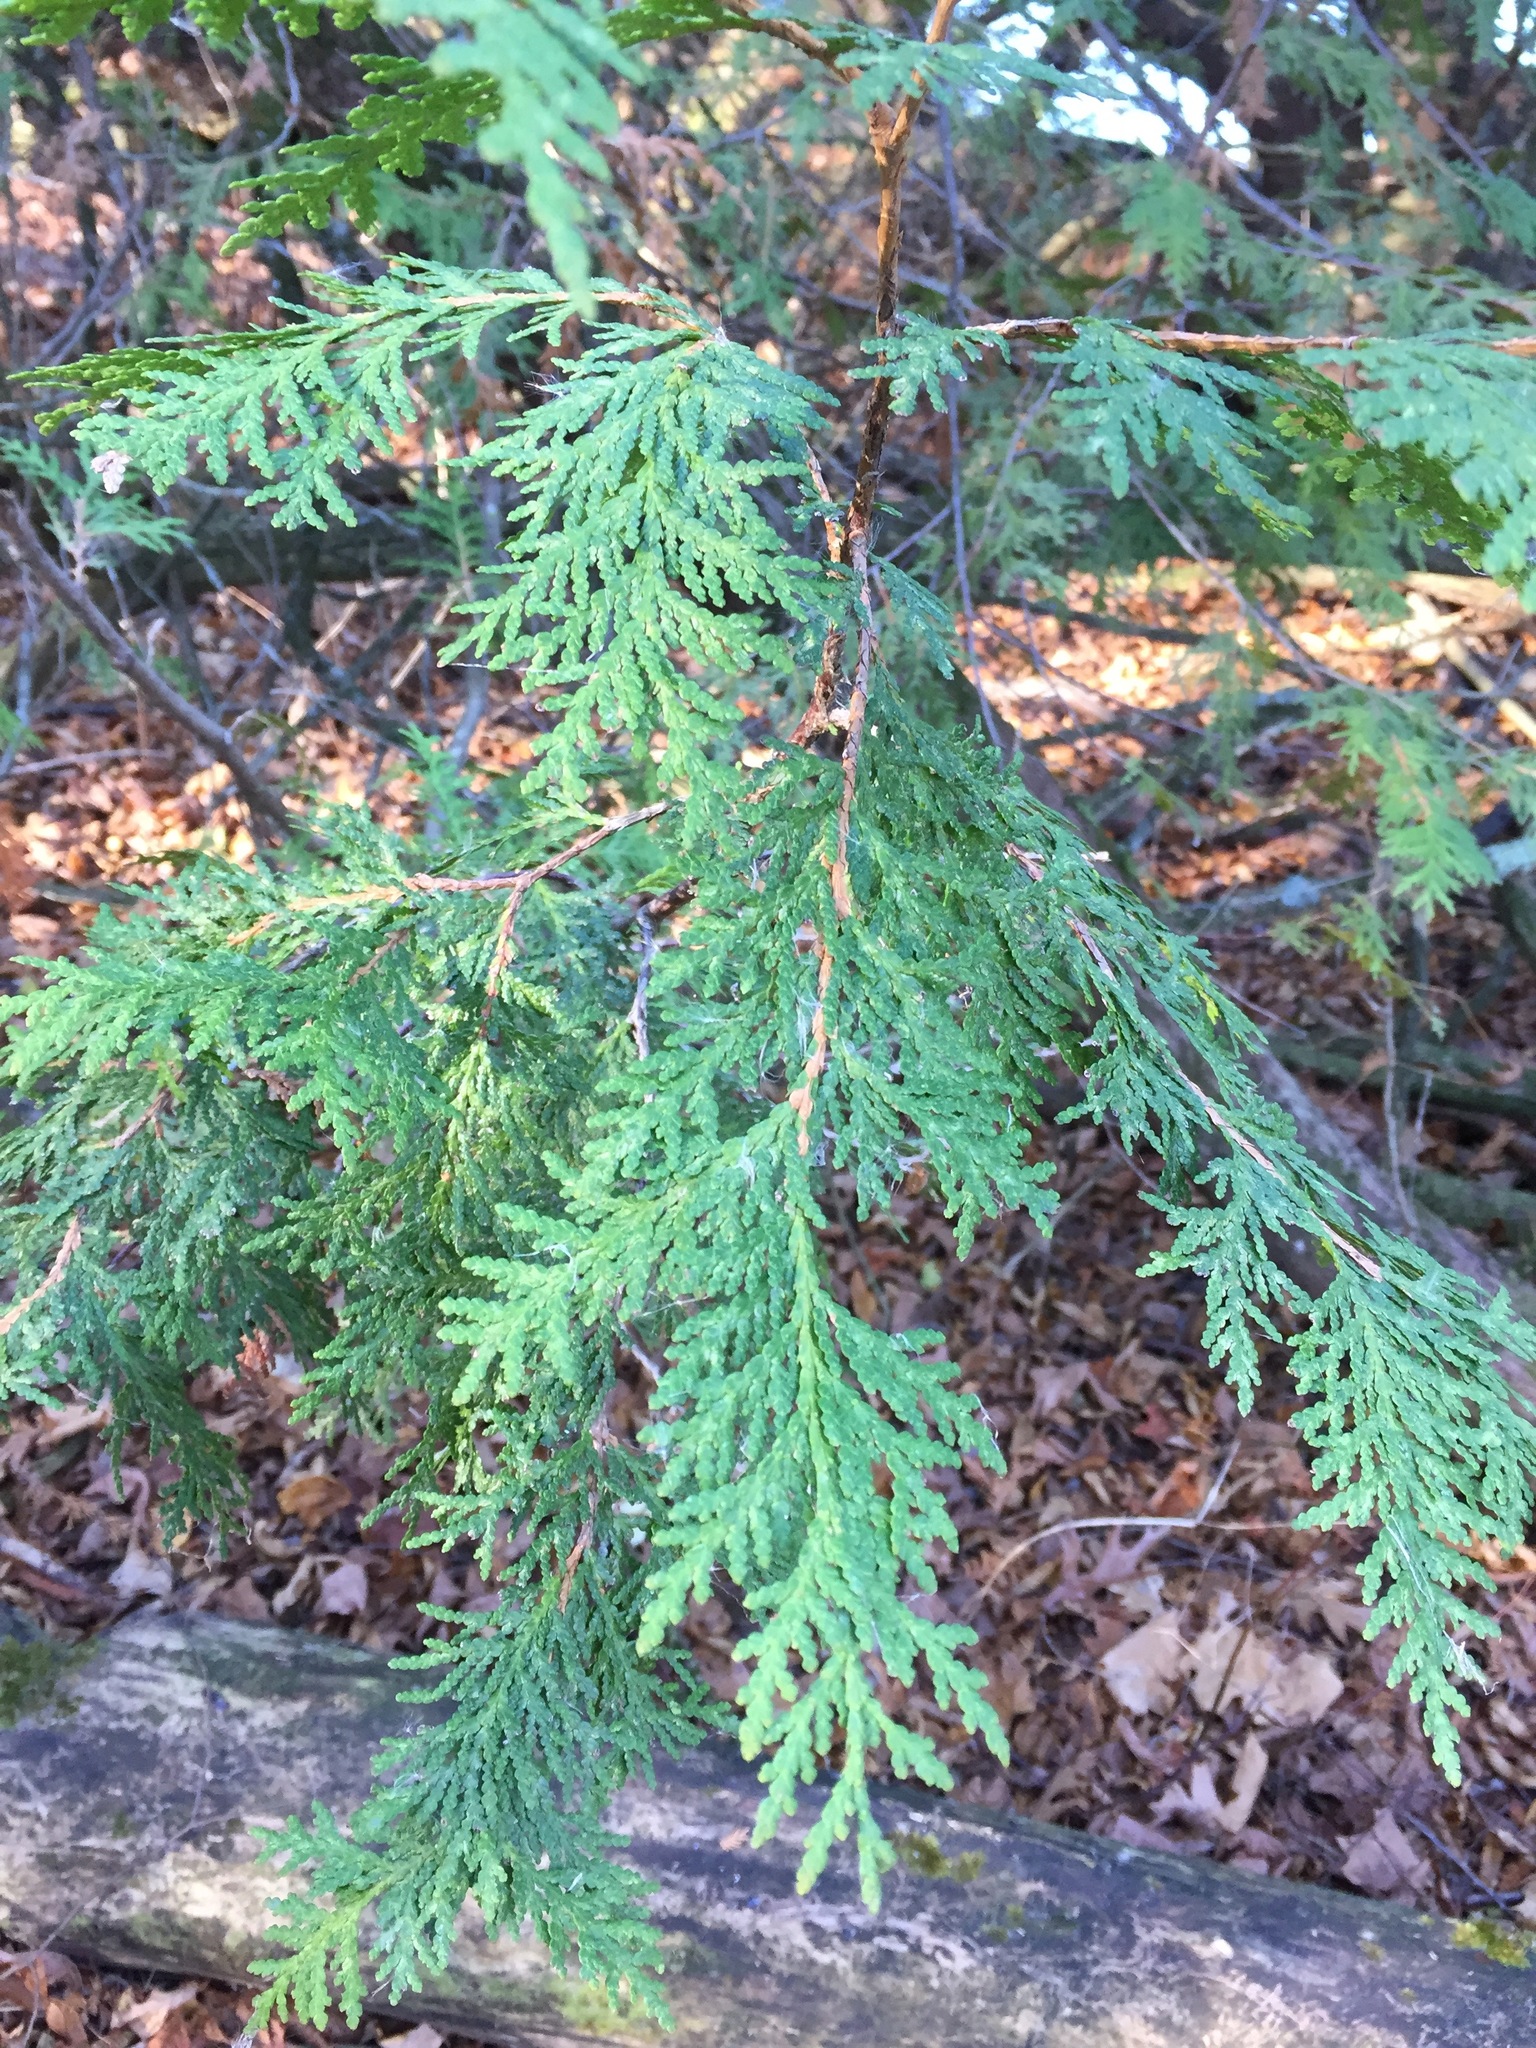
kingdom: Plantae
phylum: Tracheophyta
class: Pinopsida
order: Pinales
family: Cupressaceae
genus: Thuja
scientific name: Thuja occidentalis
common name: Northern white-cedar
